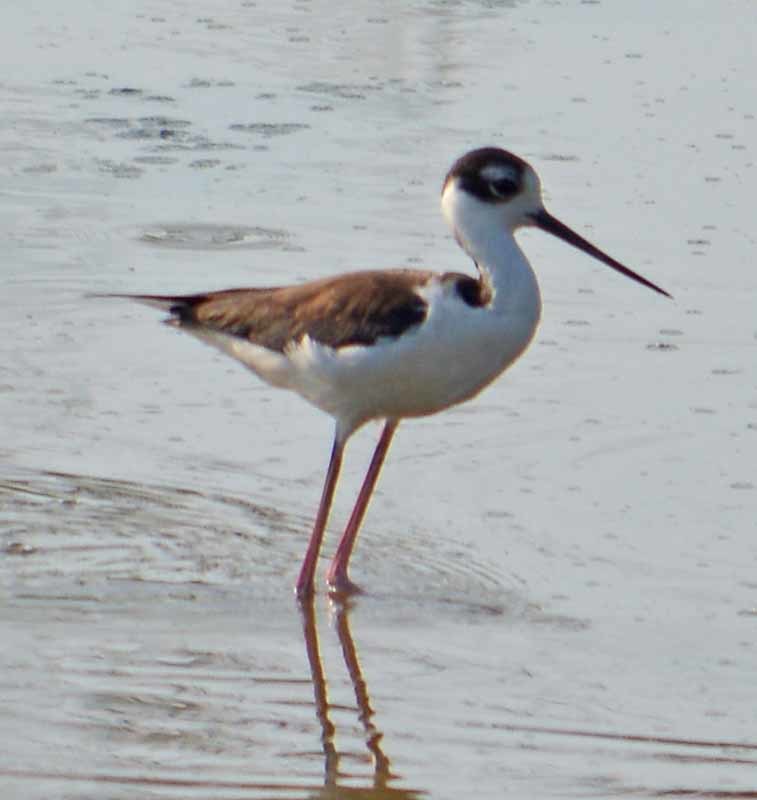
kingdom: Animalia
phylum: Chordata
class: Aves
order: Charadriiformes
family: Recurvirostridae
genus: Himantopus
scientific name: Himantopus mexicanus
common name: Black-necked stilt
